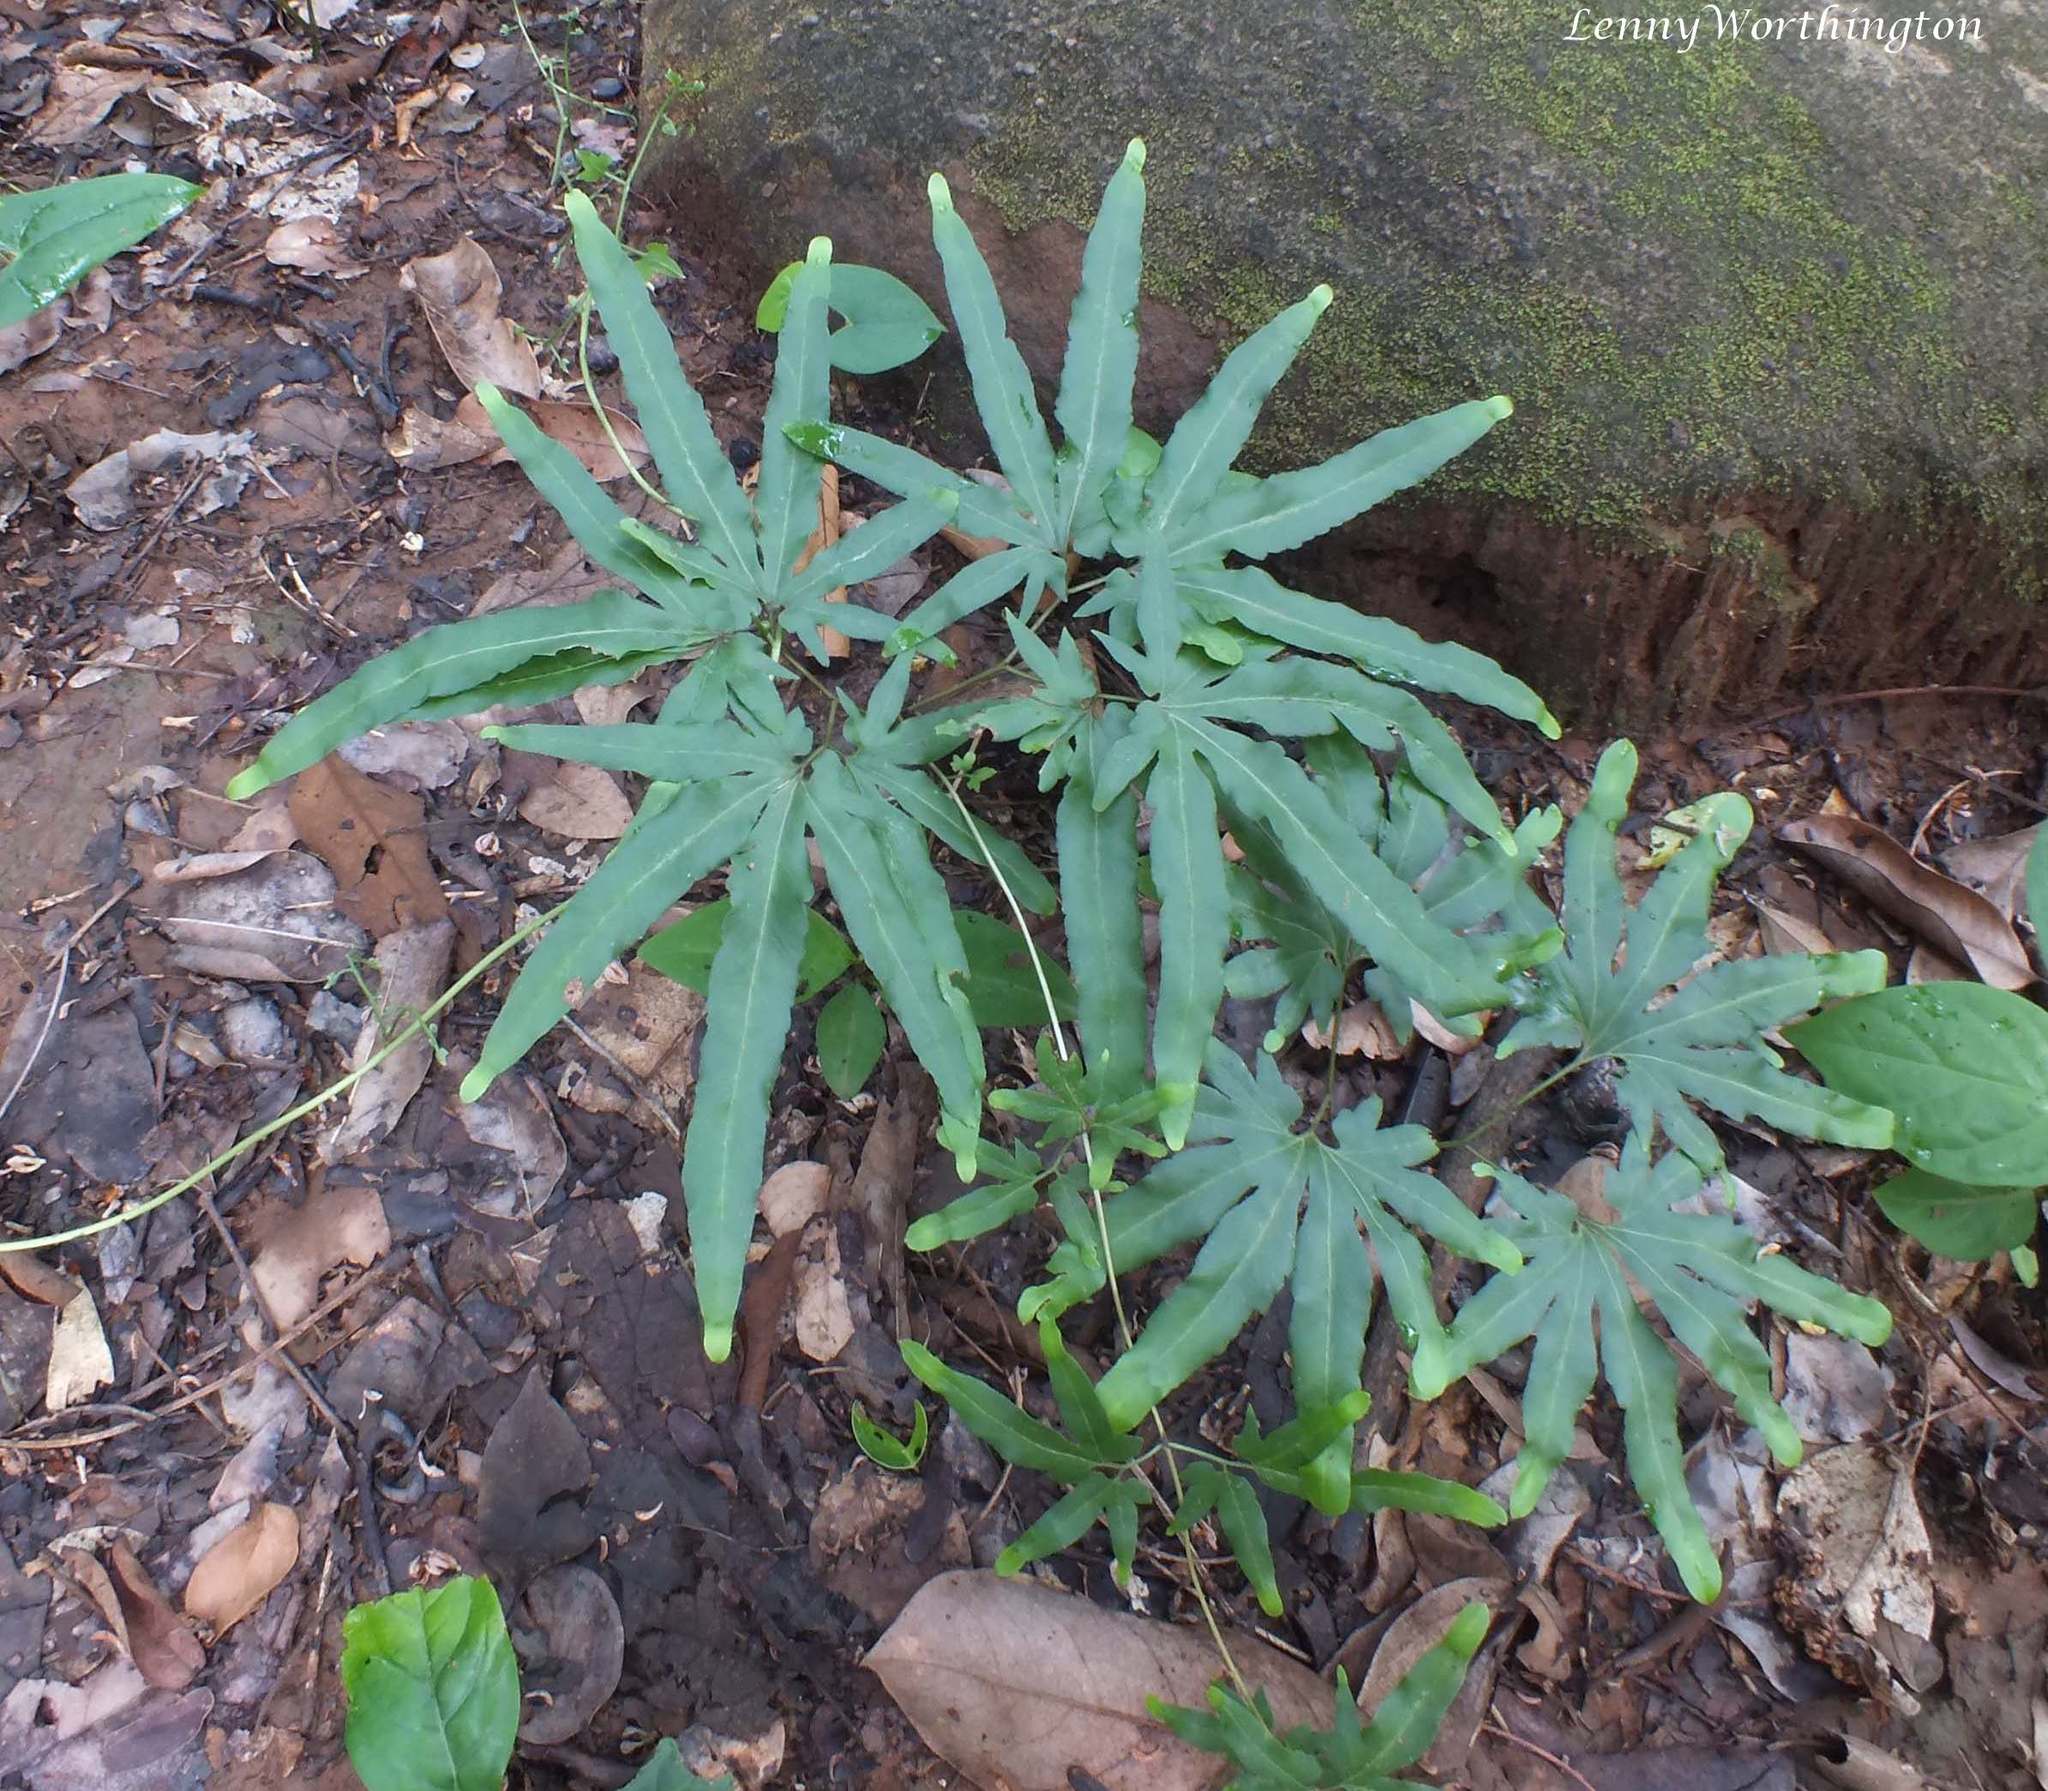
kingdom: Plantae
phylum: Tracheophyta
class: Polypodiopsida
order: Schizaeales
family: Lygodiaceae
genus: Lygodium
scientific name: Lygodium flexuosum
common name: Maidenhair creeper
